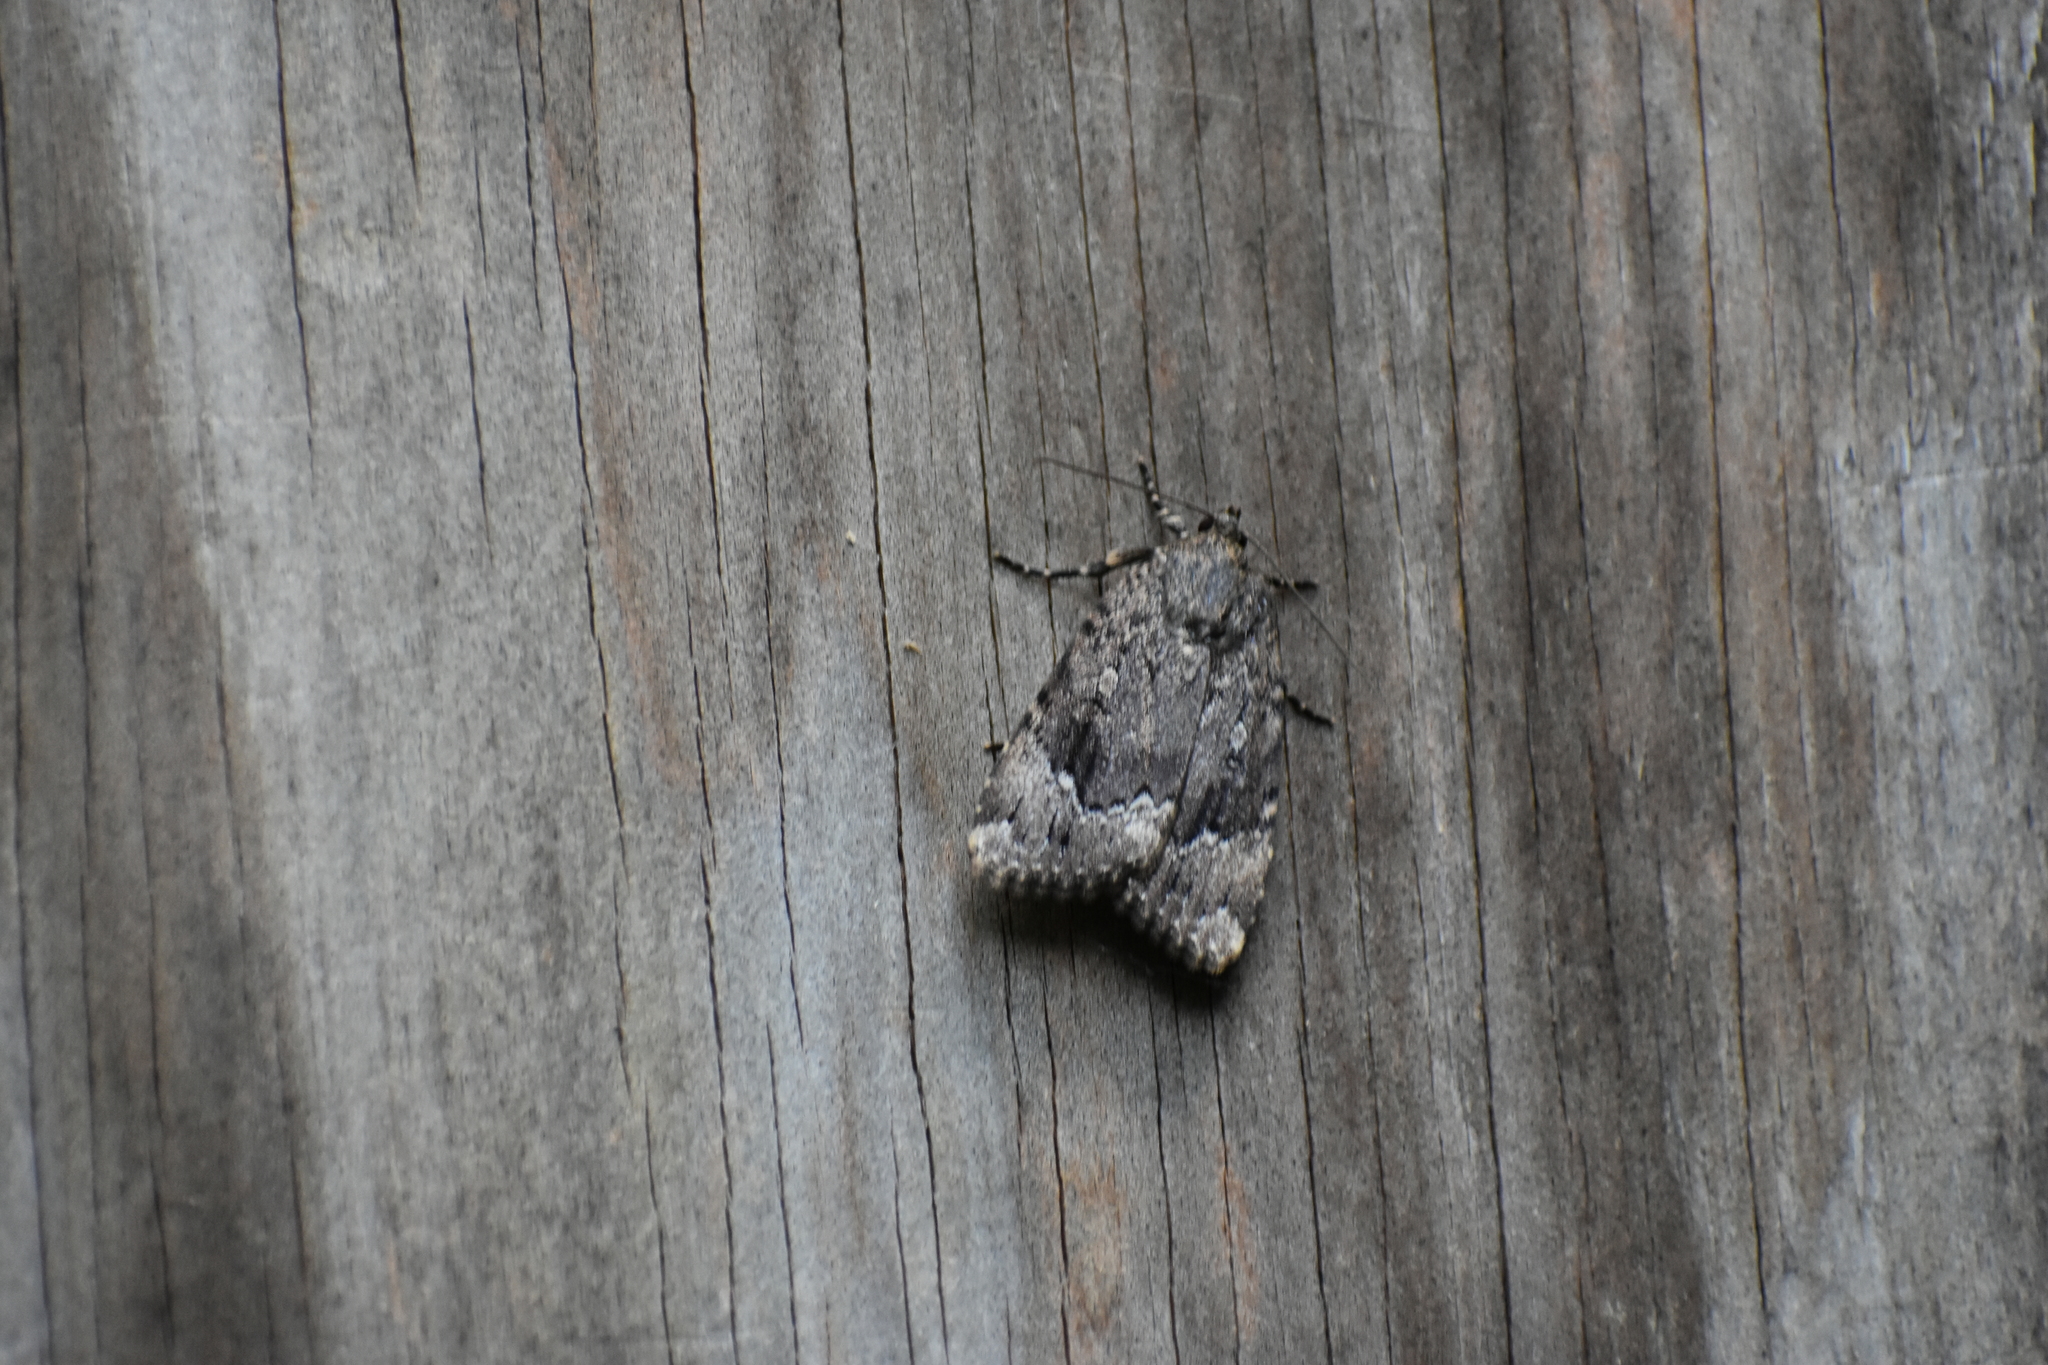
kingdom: Animalia
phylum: Arthropoda
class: Insecta
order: Lepidoptera
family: Noctuidae
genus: Amphipyra
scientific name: Amphipyra pyramidoides
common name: American copper underwing
